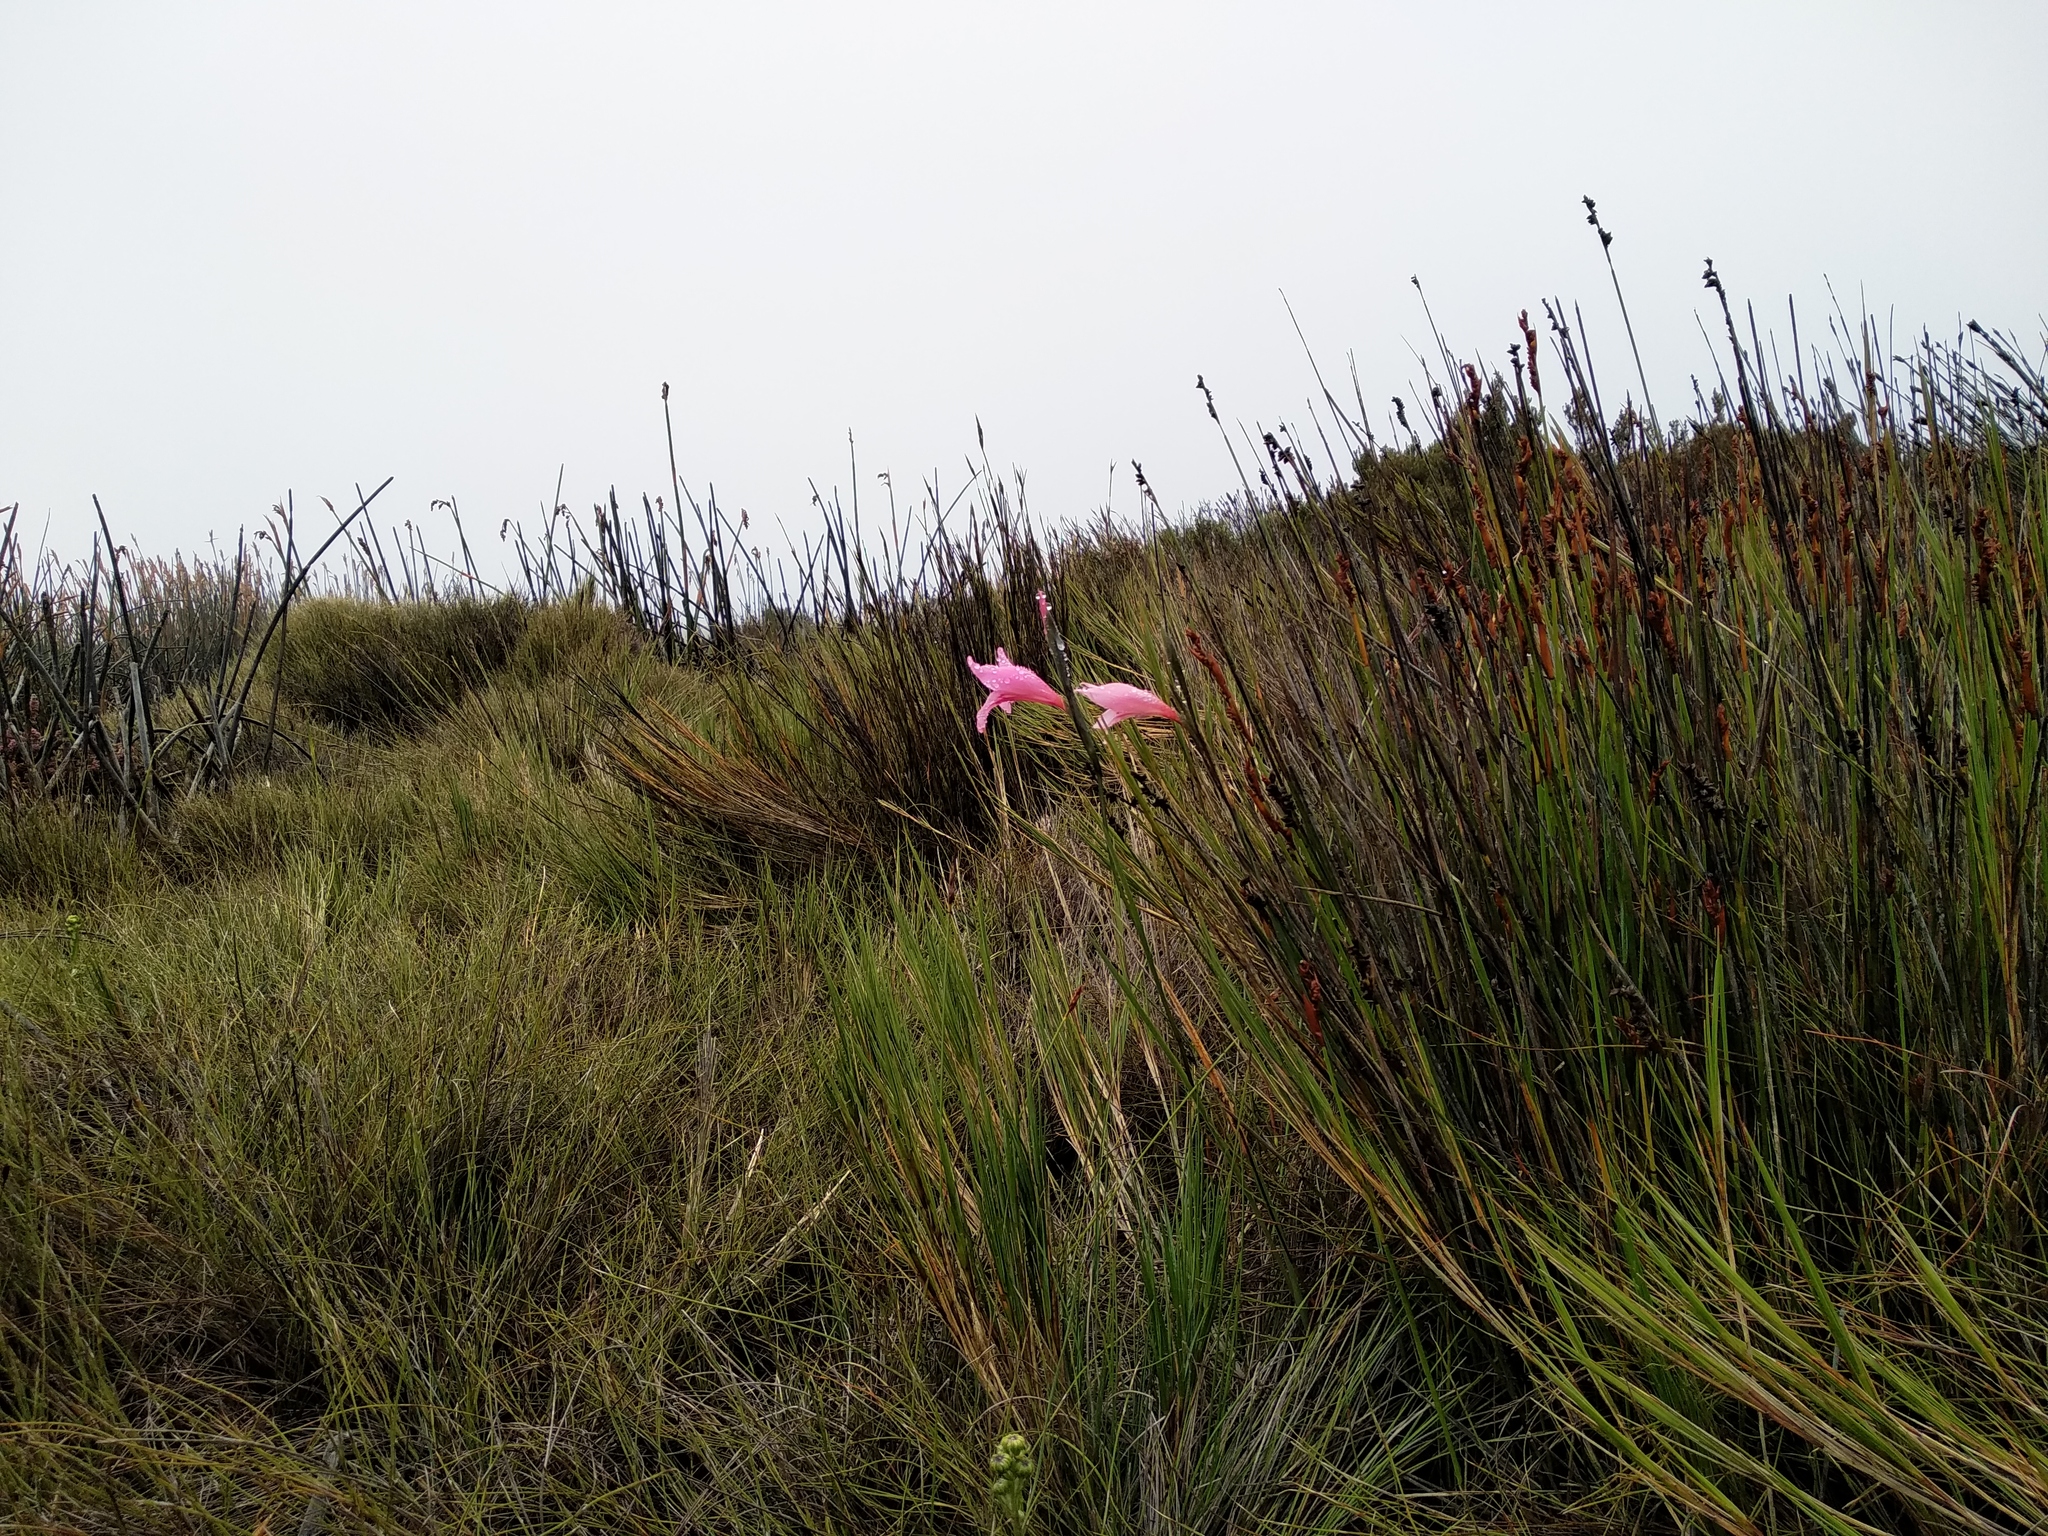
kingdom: Plantae
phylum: Tracheophyta
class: Liliopsida
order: Asparagales
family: Iridaceae
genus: Gladiolus
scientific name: Gladiolus pappei
